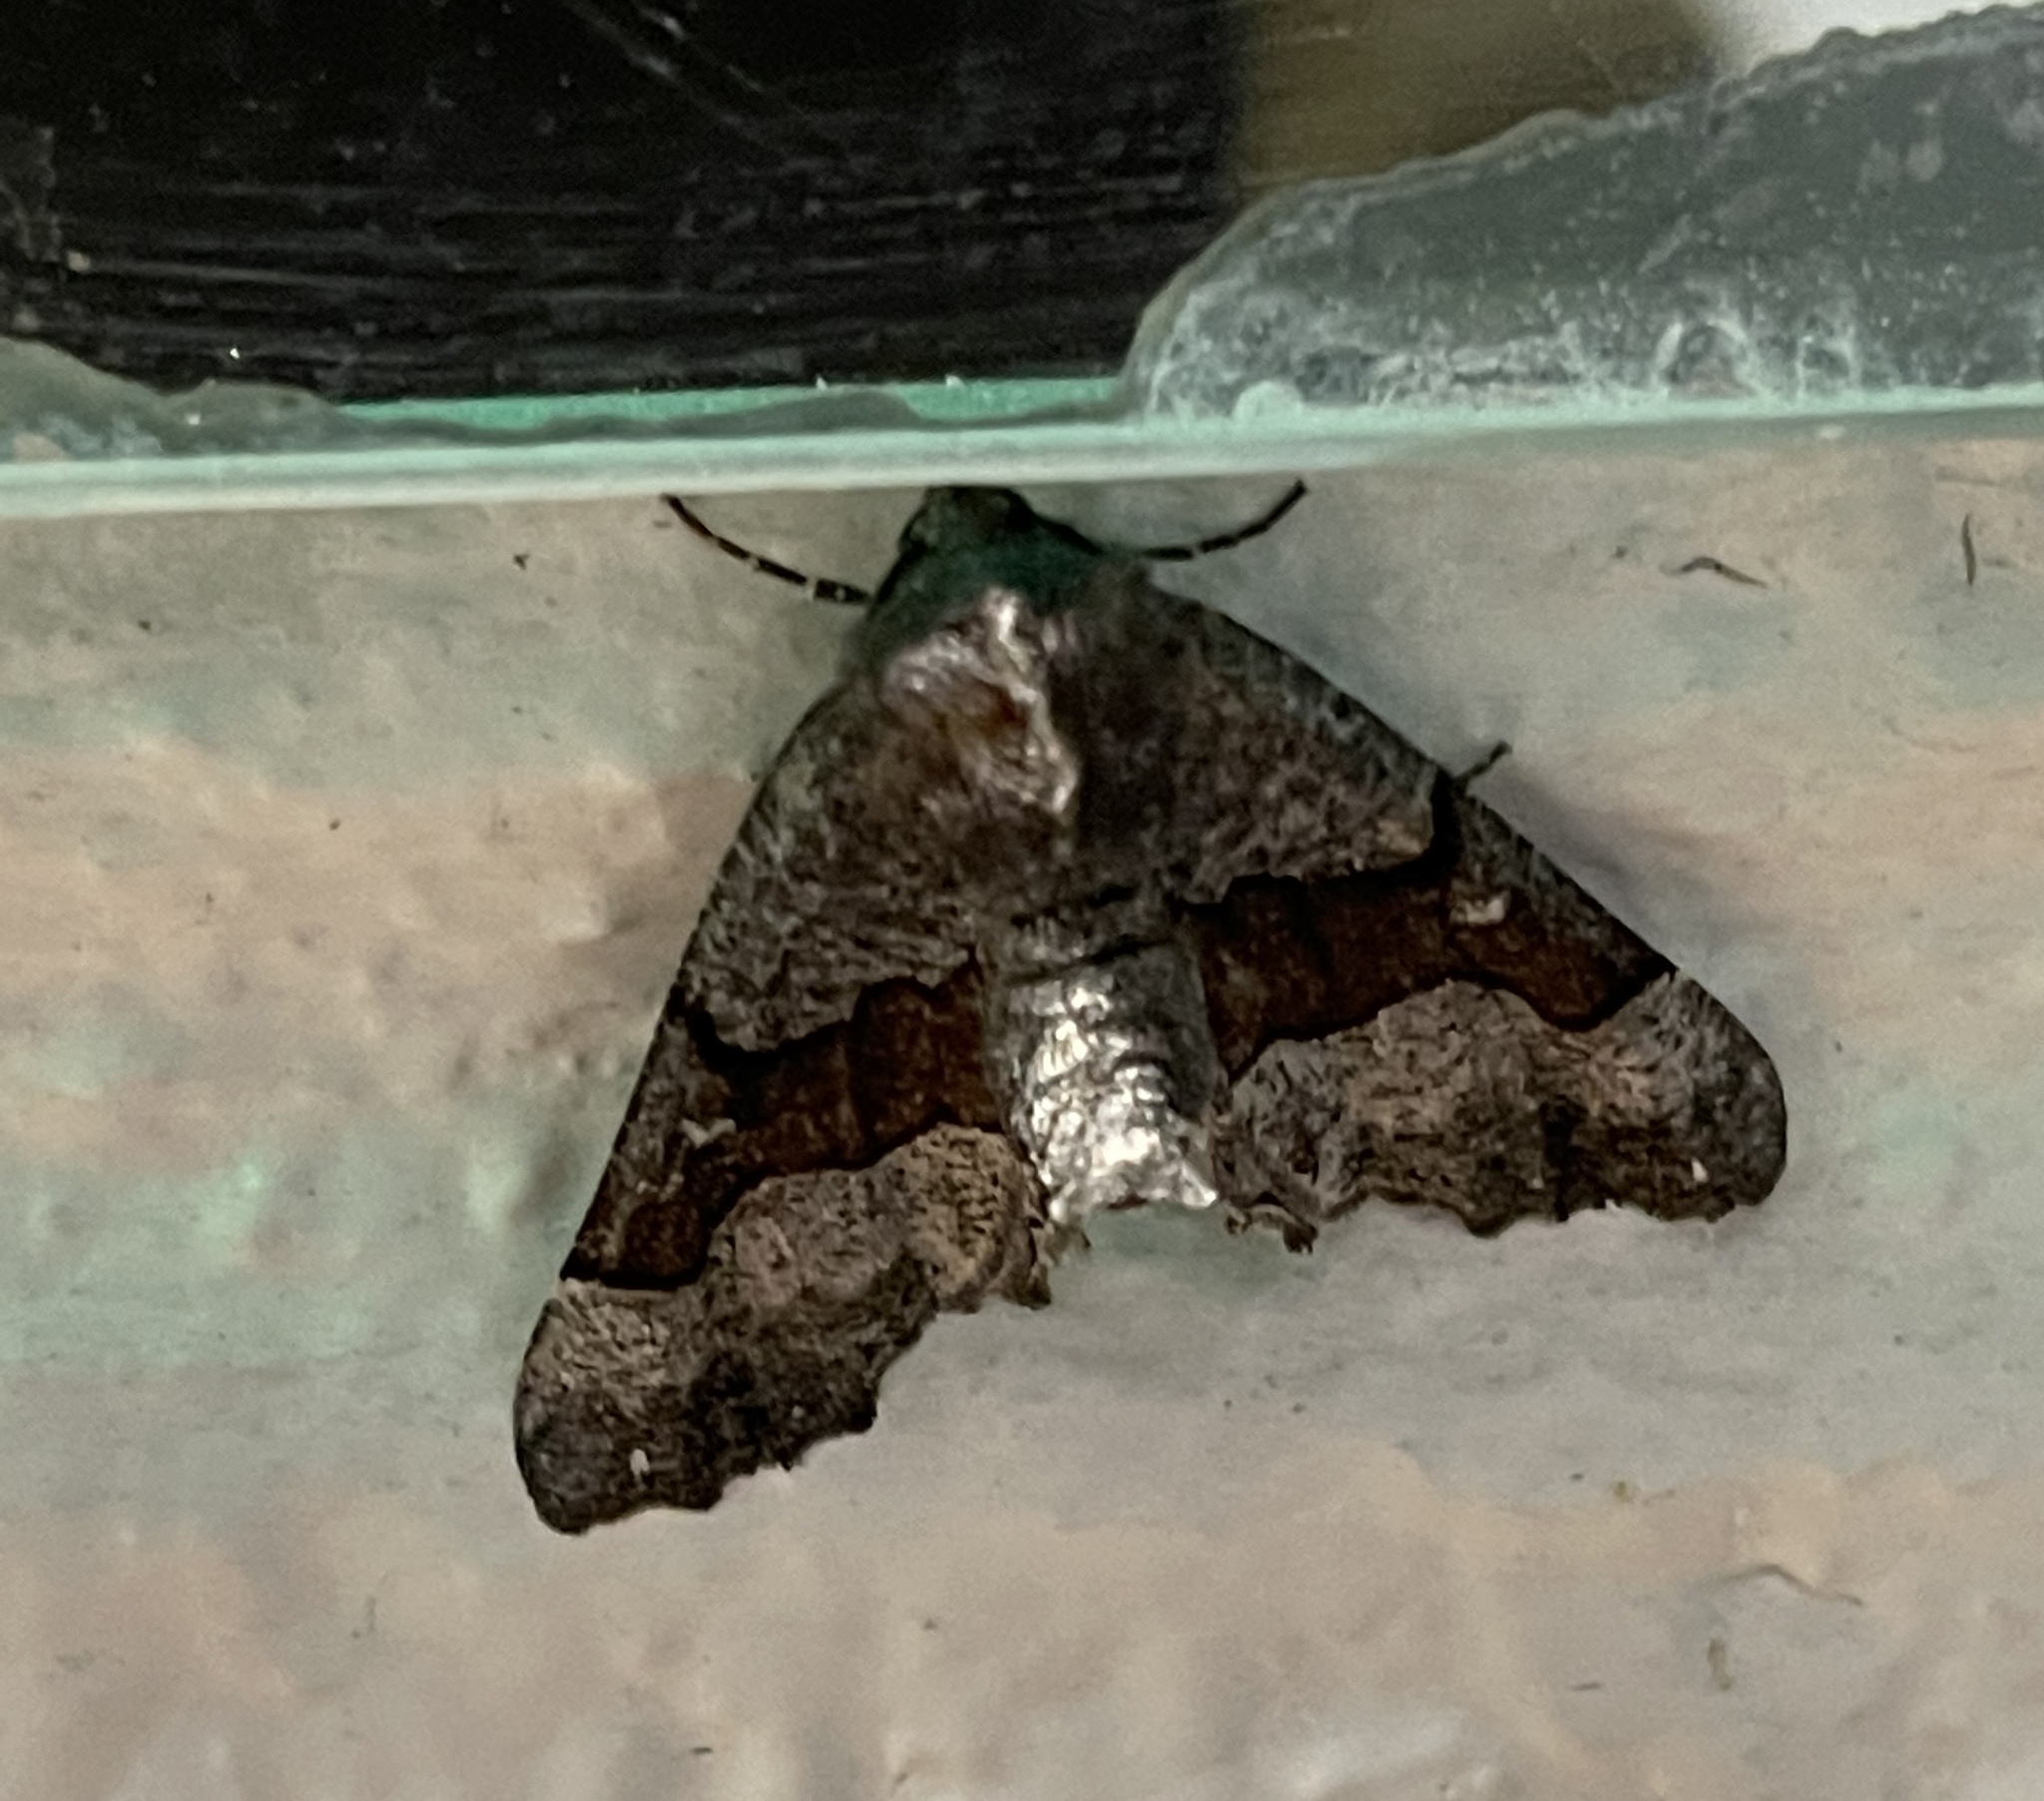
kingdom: Animalia
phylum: Arthropoda
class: Insecta
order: Lepidoptera
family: Geometridae
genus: Pero
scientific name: Pero behrensaria
